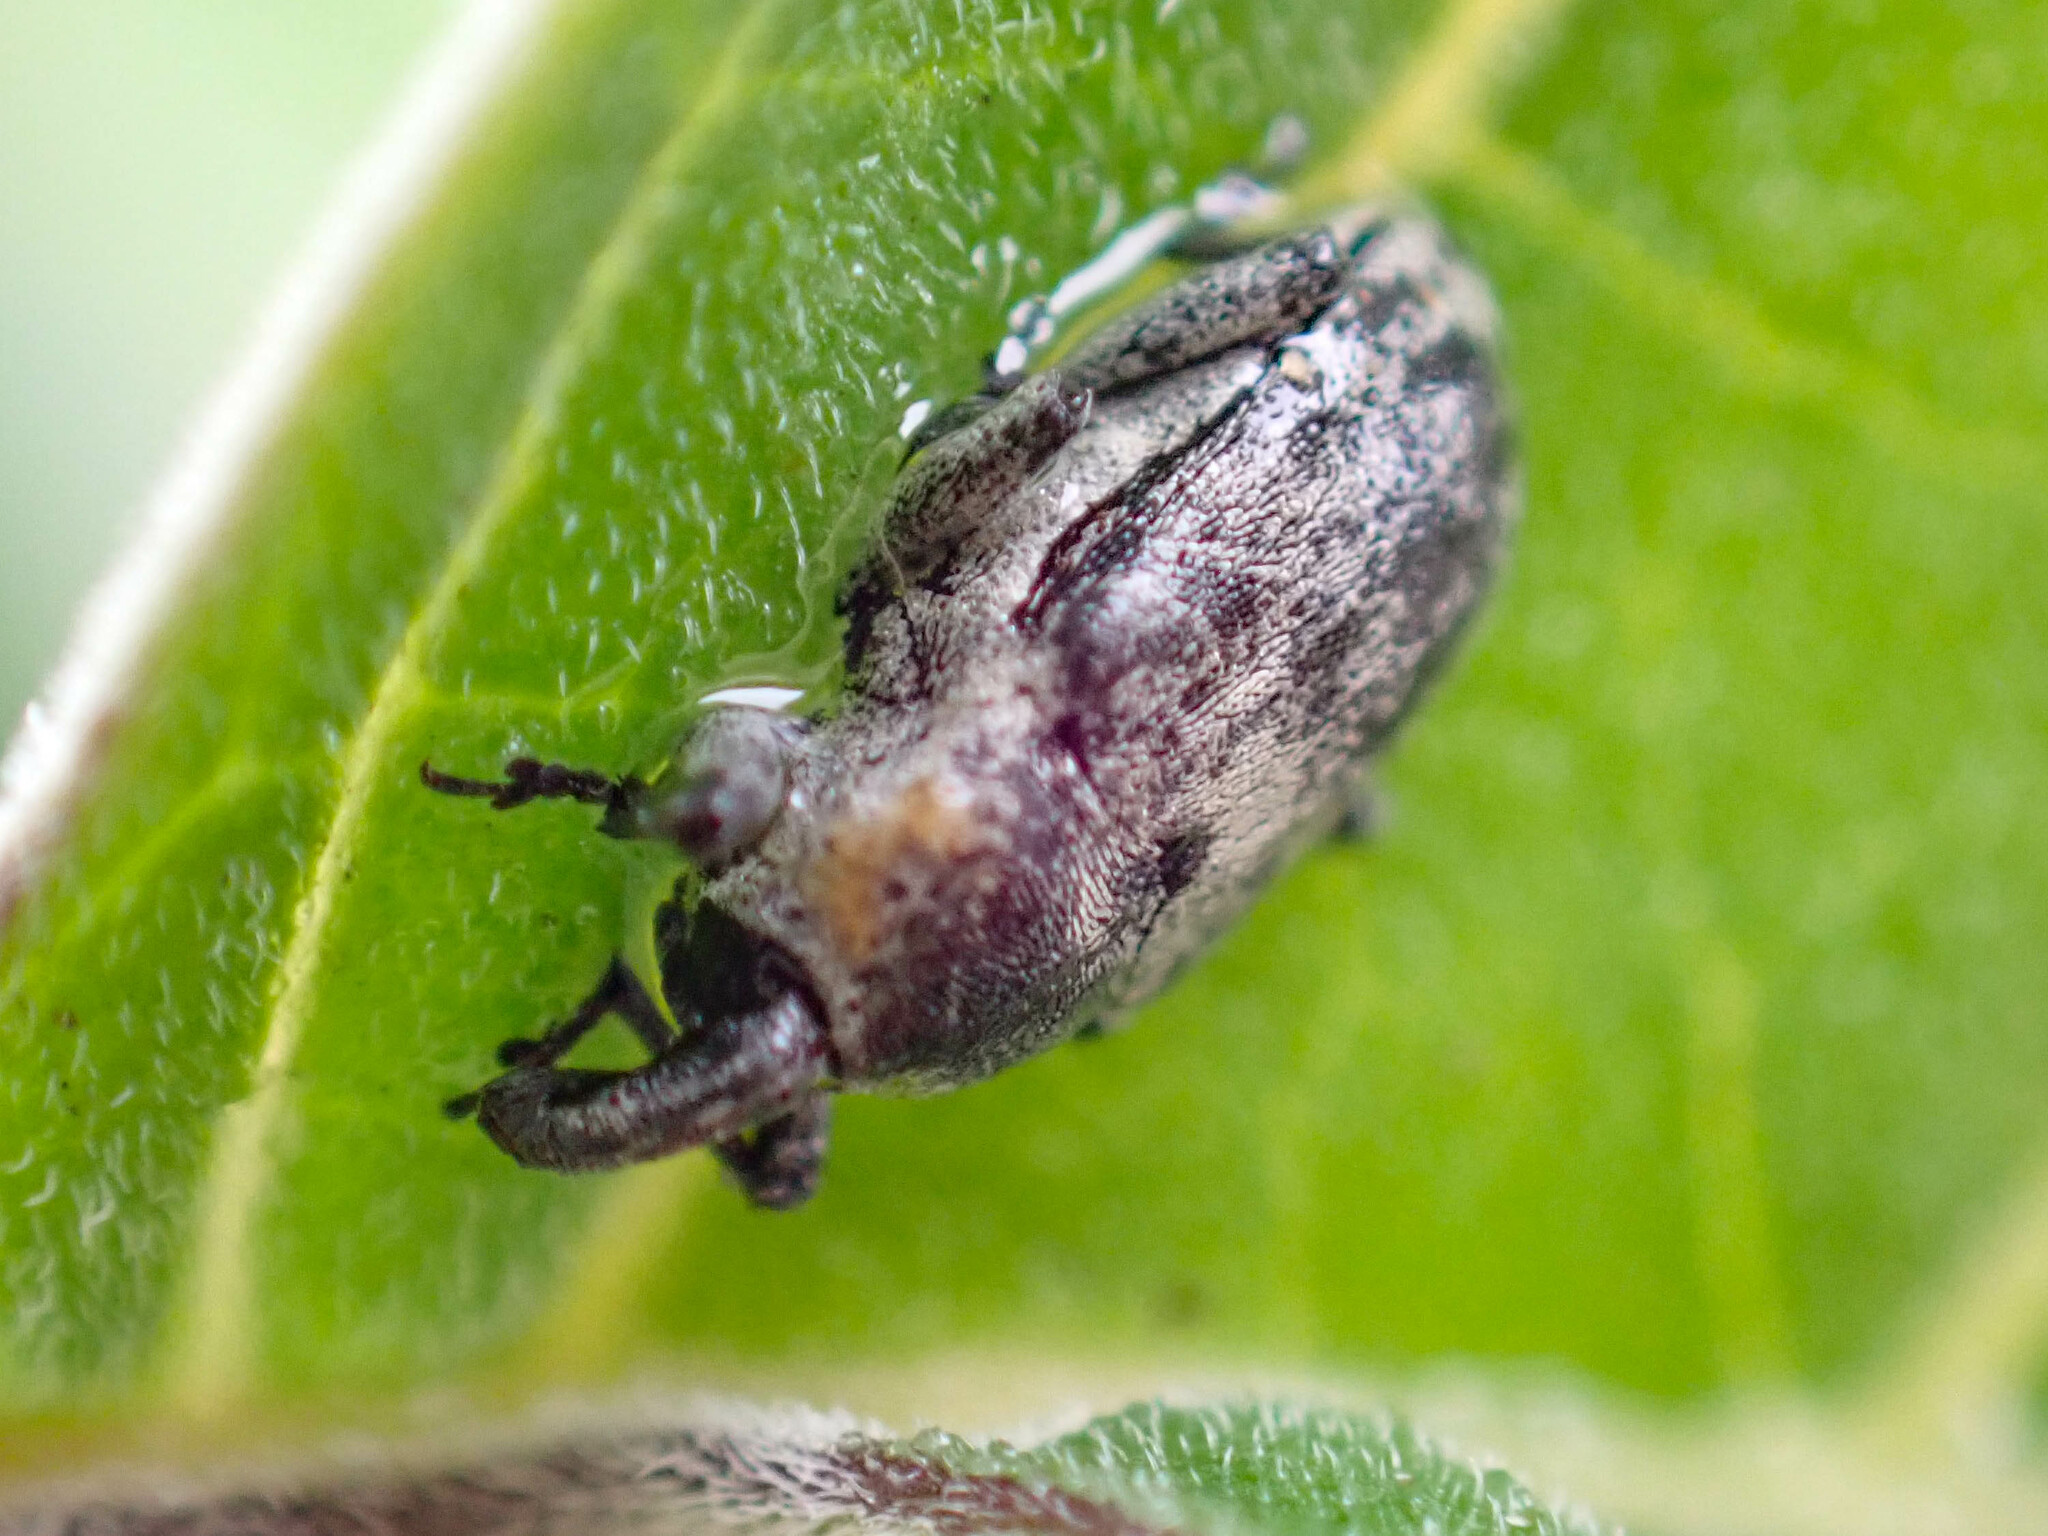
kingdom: Animalia
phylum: Arthropoda
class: Insecta
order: Coleoptera
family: Curculionidae
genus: Trichobaris
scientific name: Trichobaris compacta
